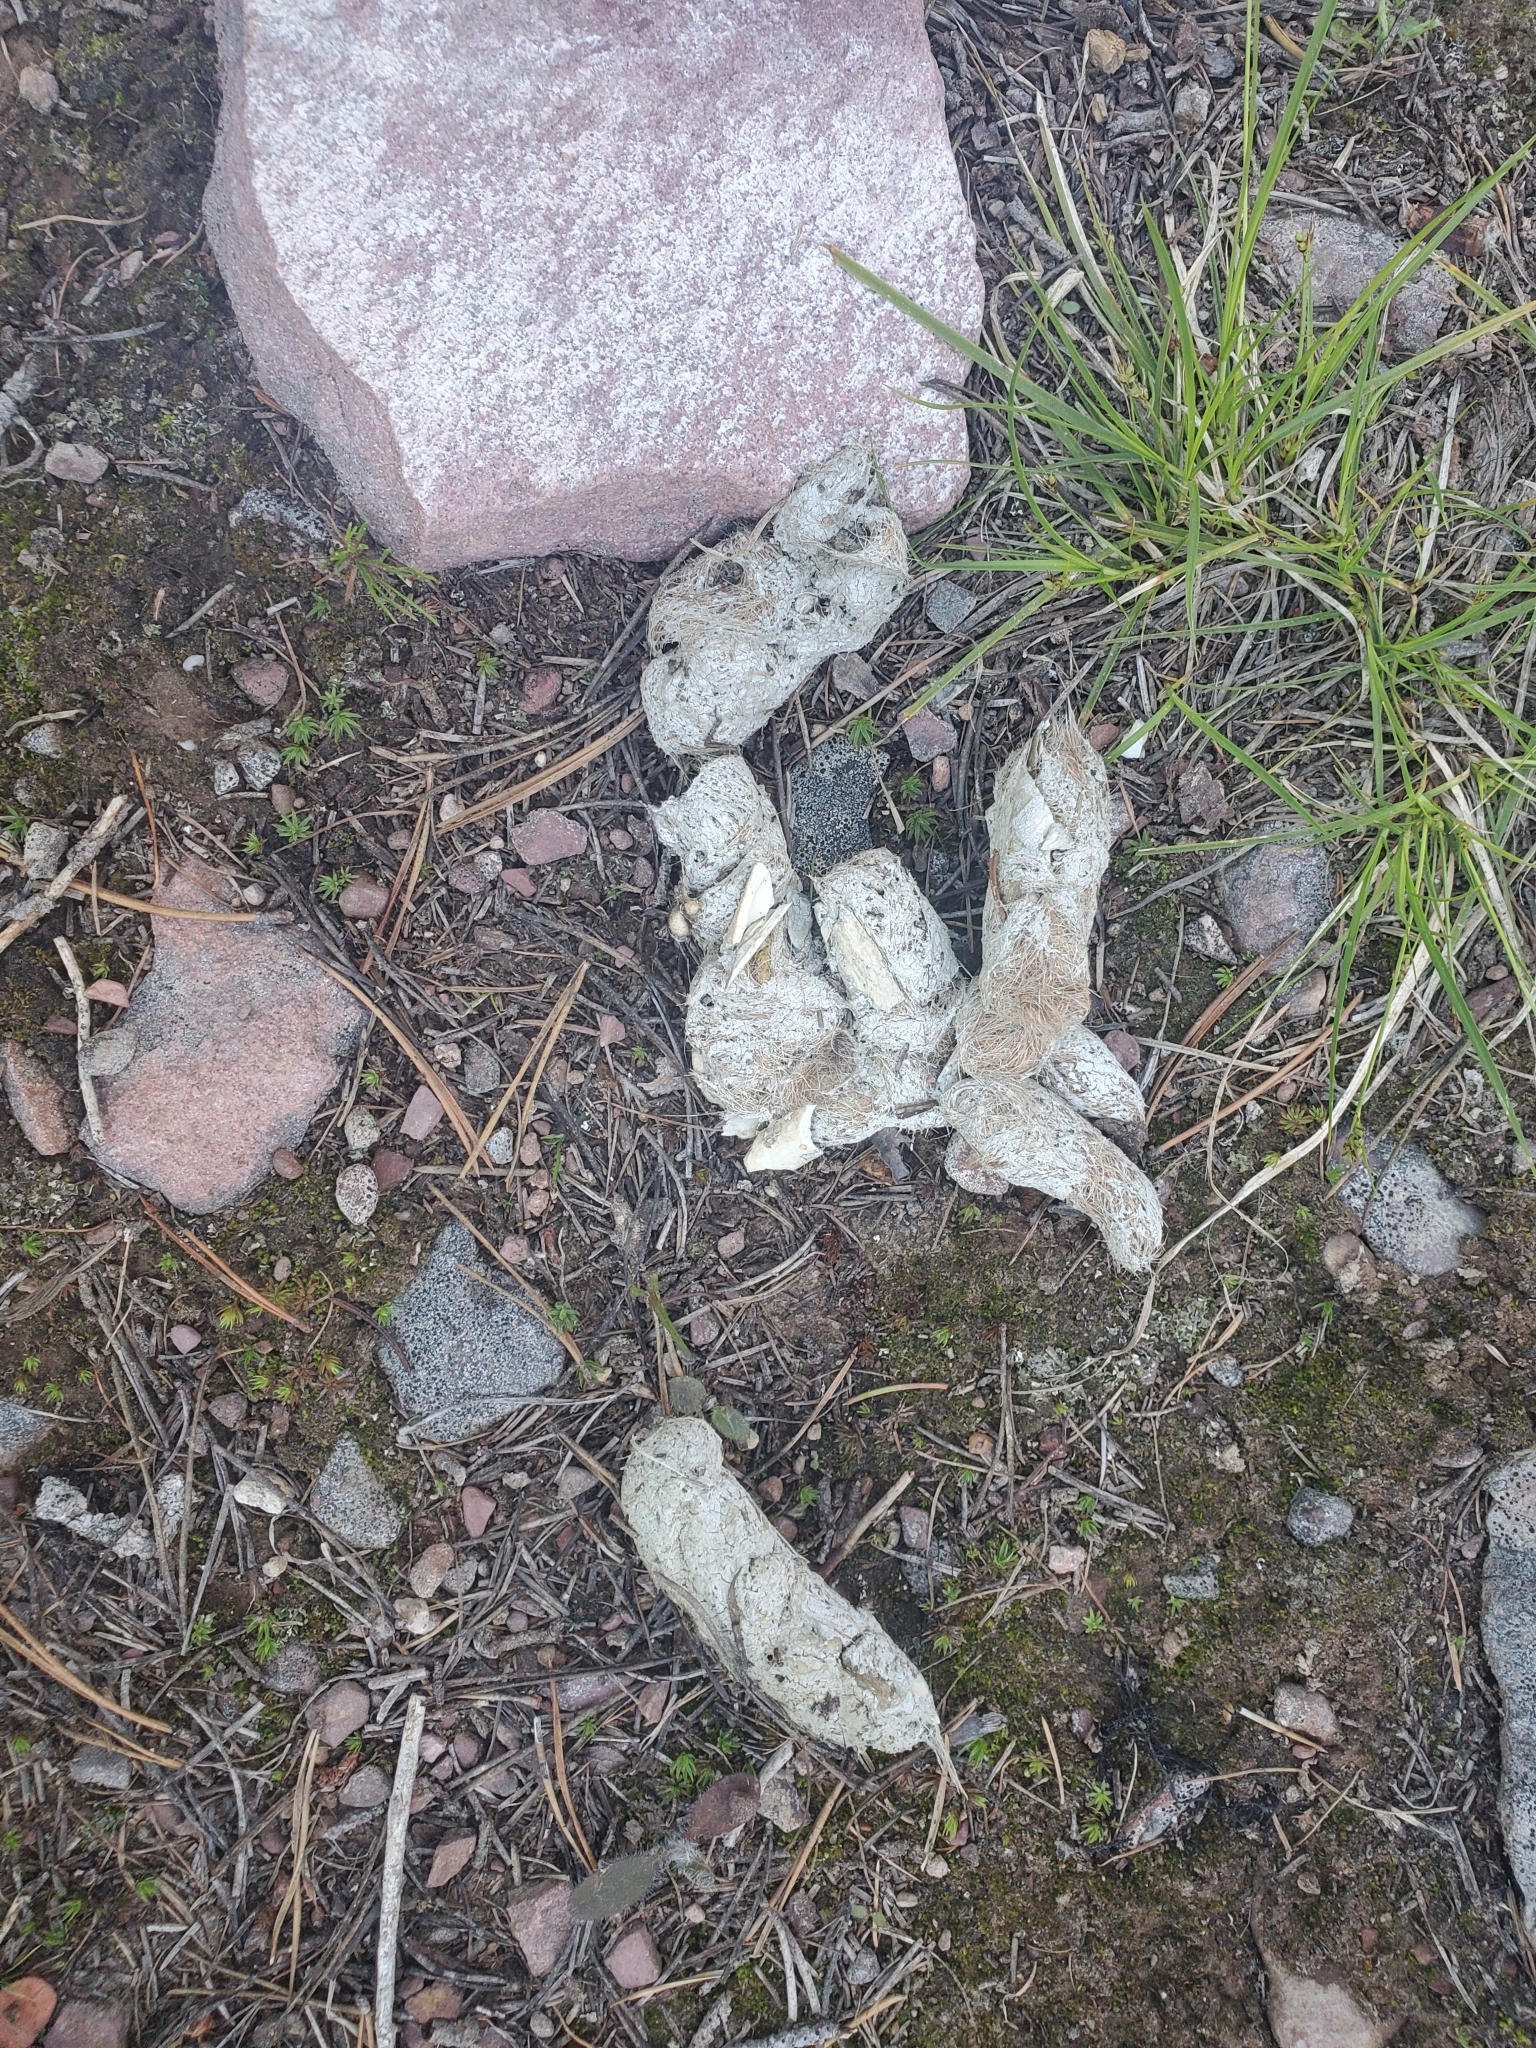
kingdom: Animalia
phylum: Chordata
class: Mammalia
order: Carnivora
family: Canidae
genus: Canis
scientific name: Canis lupus
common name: Gray wolf
